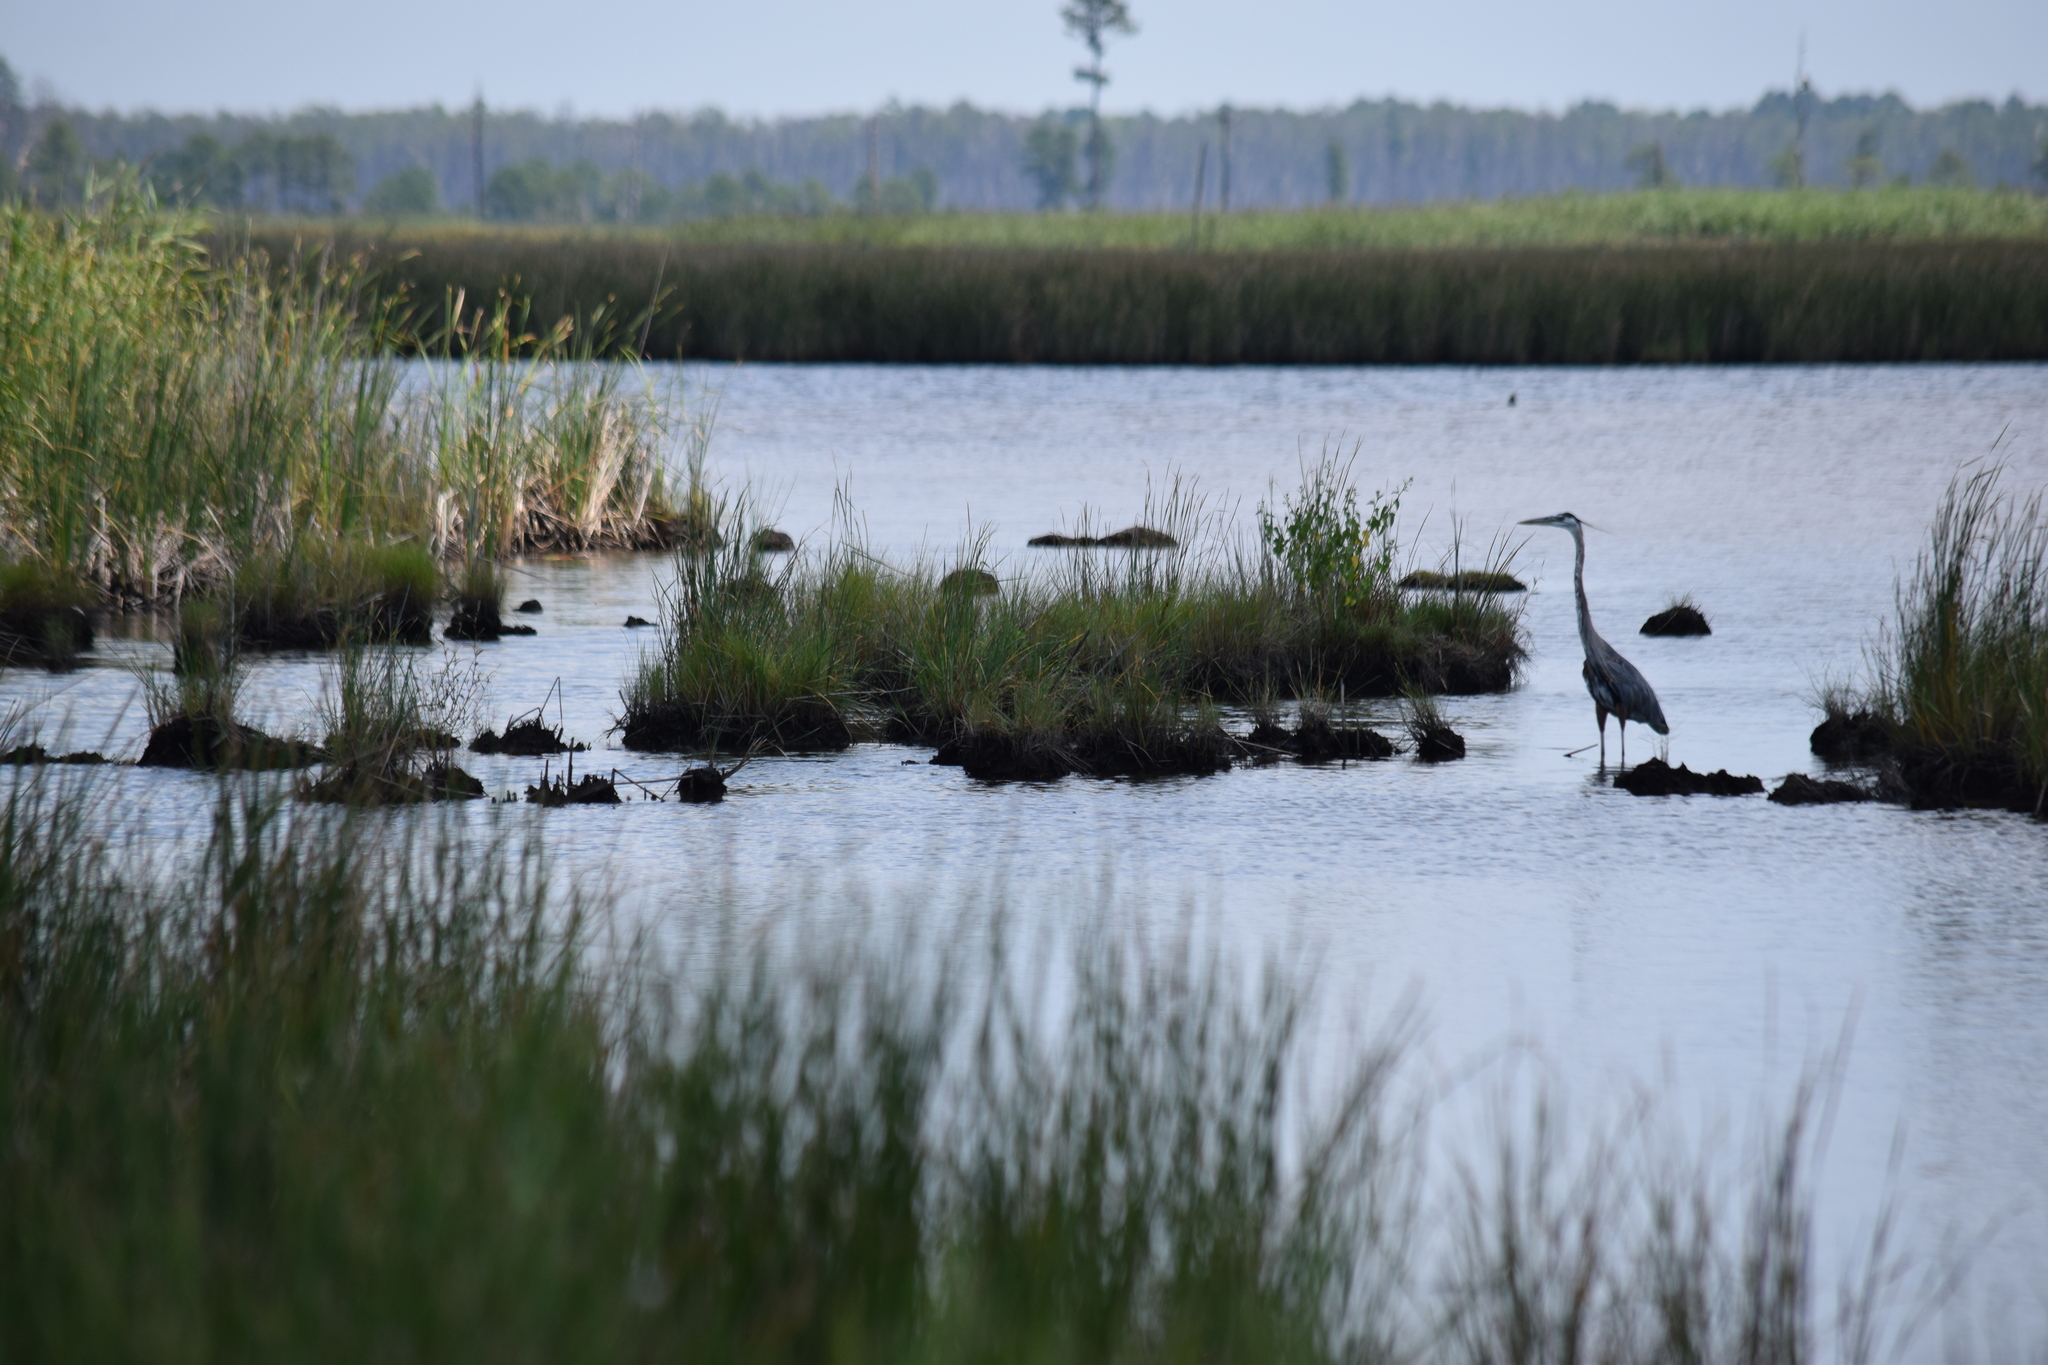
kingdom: Animalia
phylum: Chordata
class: Aves
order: Pelecaniformes
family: Ardeidae
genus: Ardea
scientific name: Ardea herodias
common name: Great blue heron
